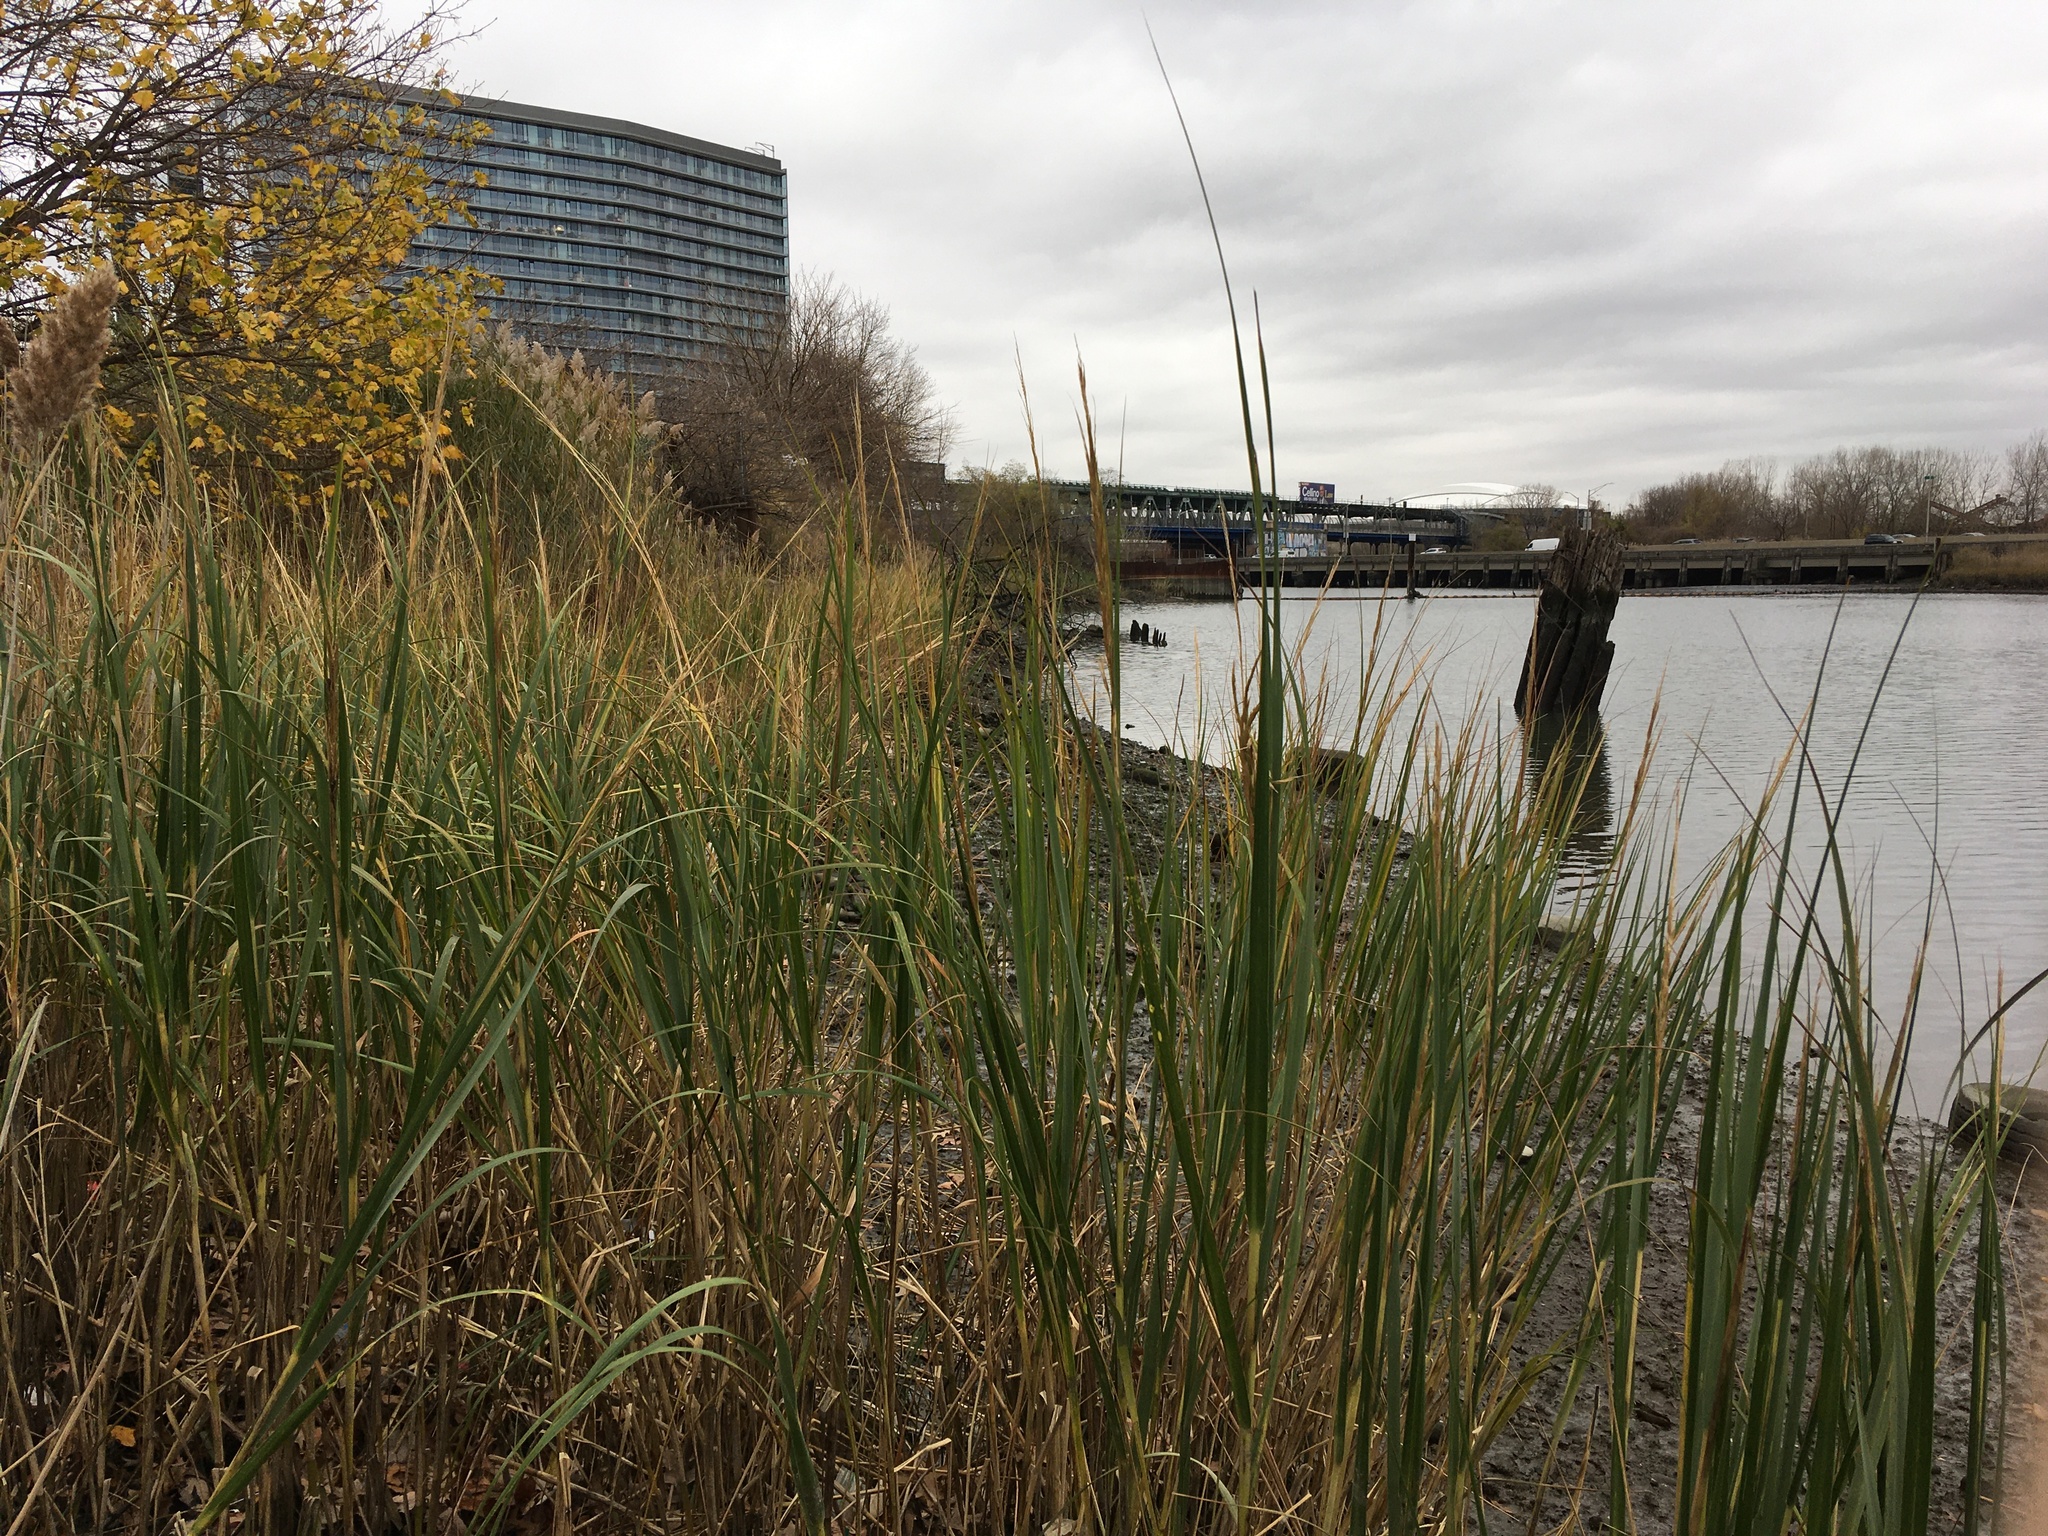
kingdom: Plantae
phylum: Tracheophyta
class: Liliopsida
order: Poales
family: Poaceae
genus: Sporobolus
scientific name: Sporobolus alterniflorus
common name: Atlantic cordgrass
